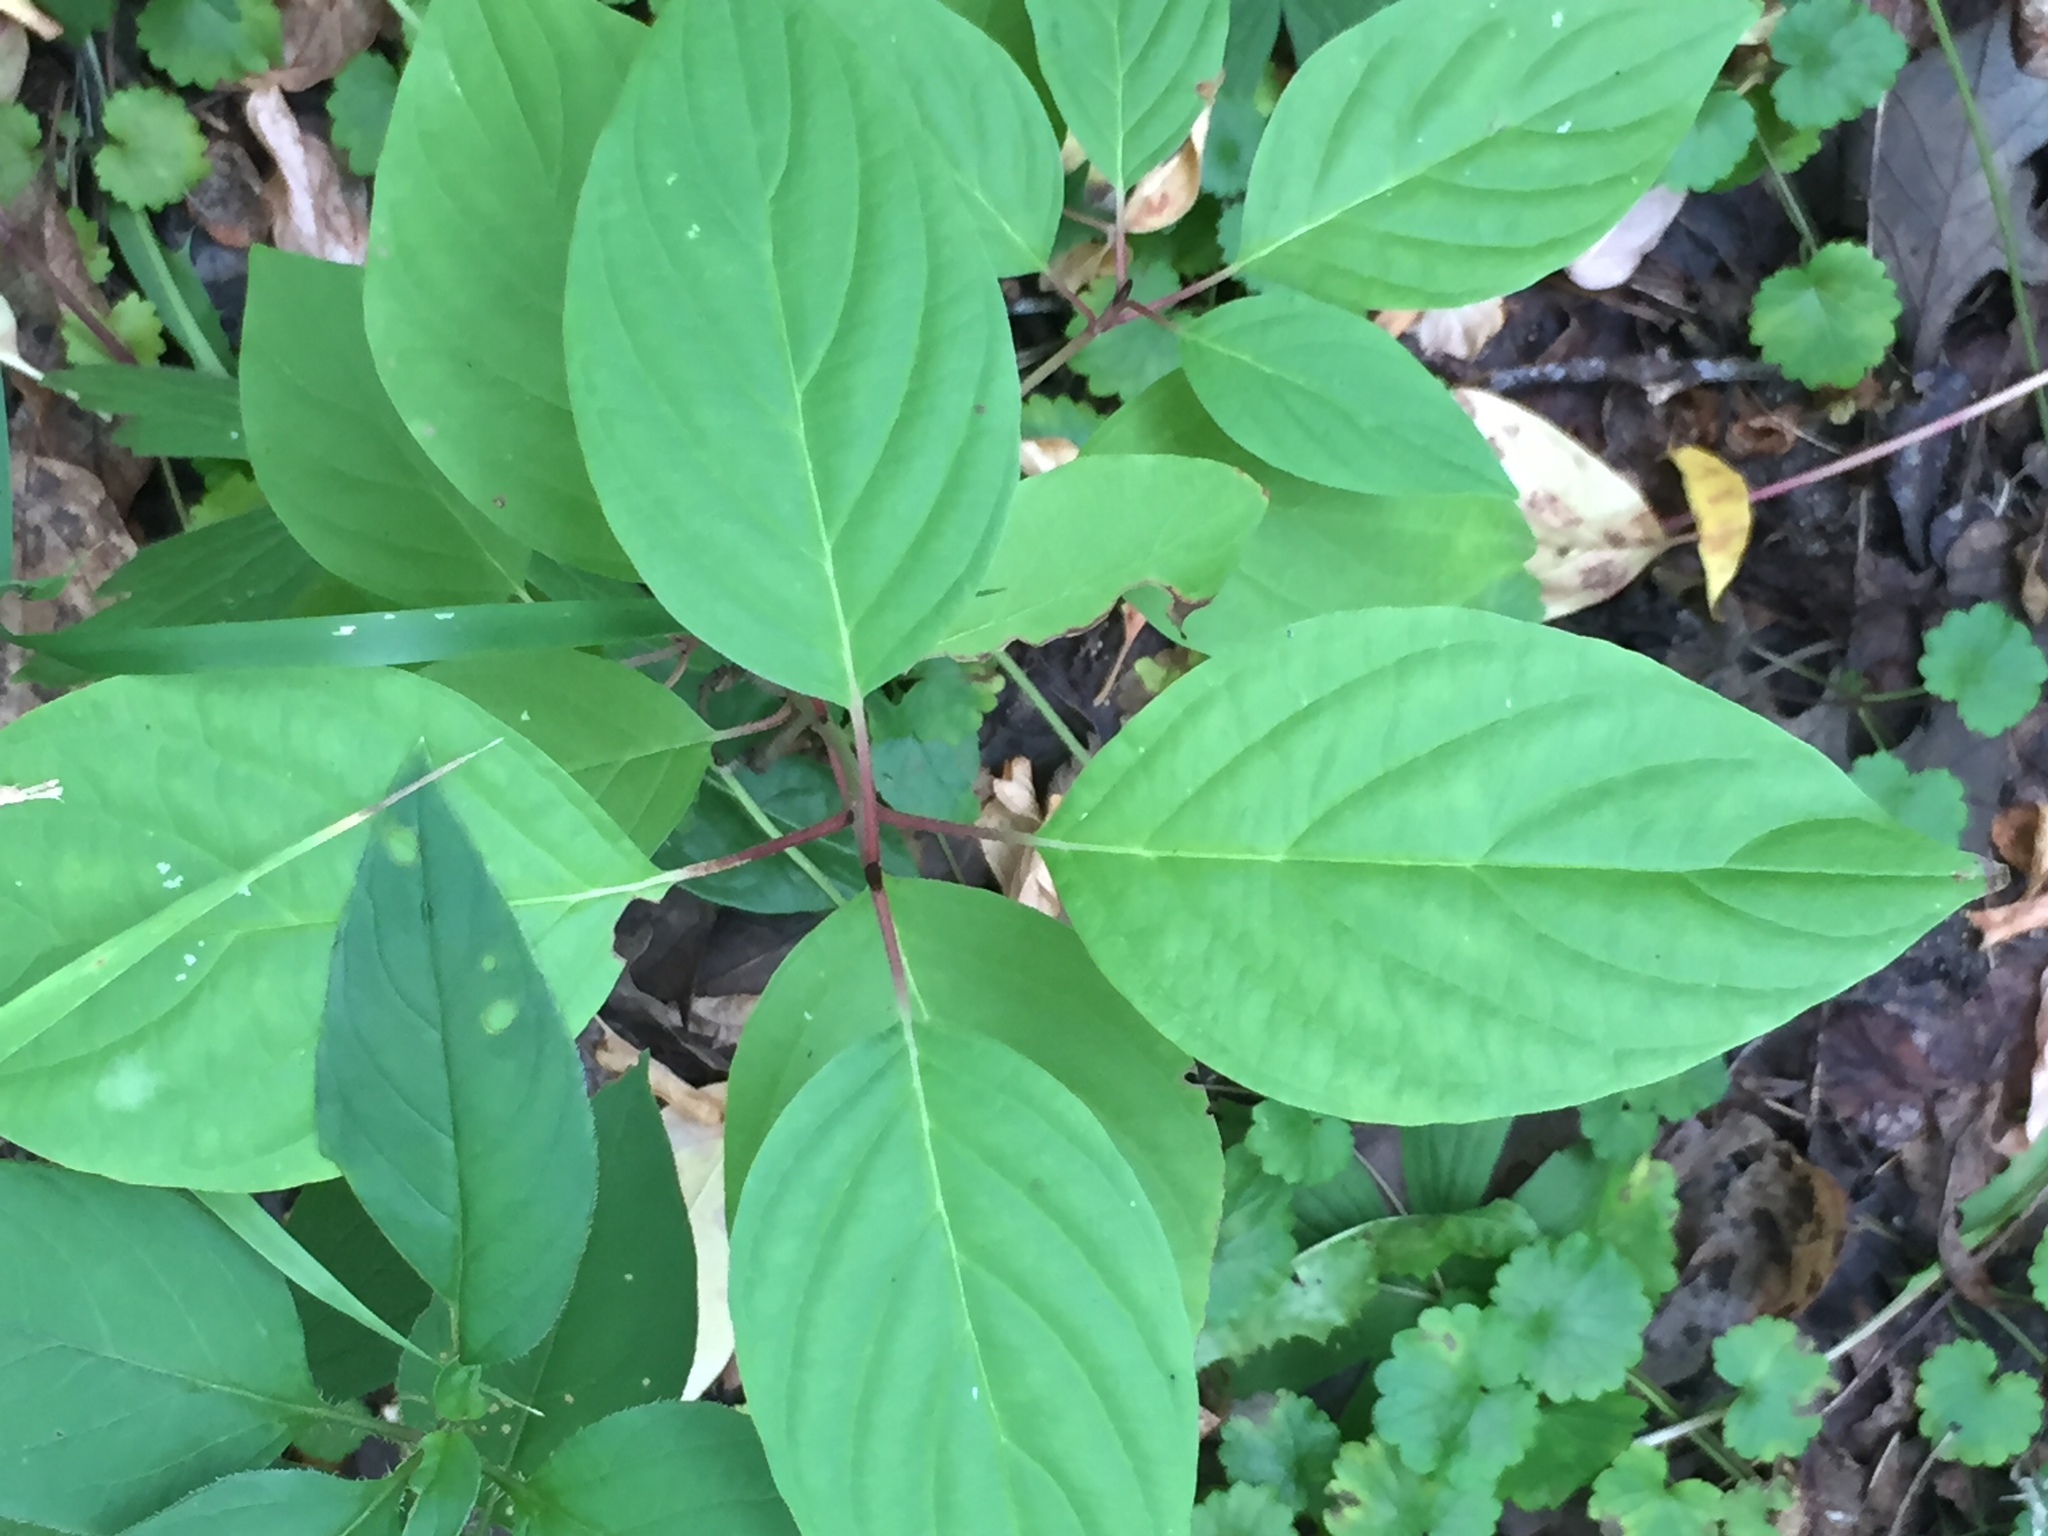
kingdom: Plantae
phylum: Tracheophyta
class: Magnoliopsida
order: Cornales
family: Cornaceae
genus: Cornus
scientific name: Cornus sericea
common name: Red-osier dogwood
